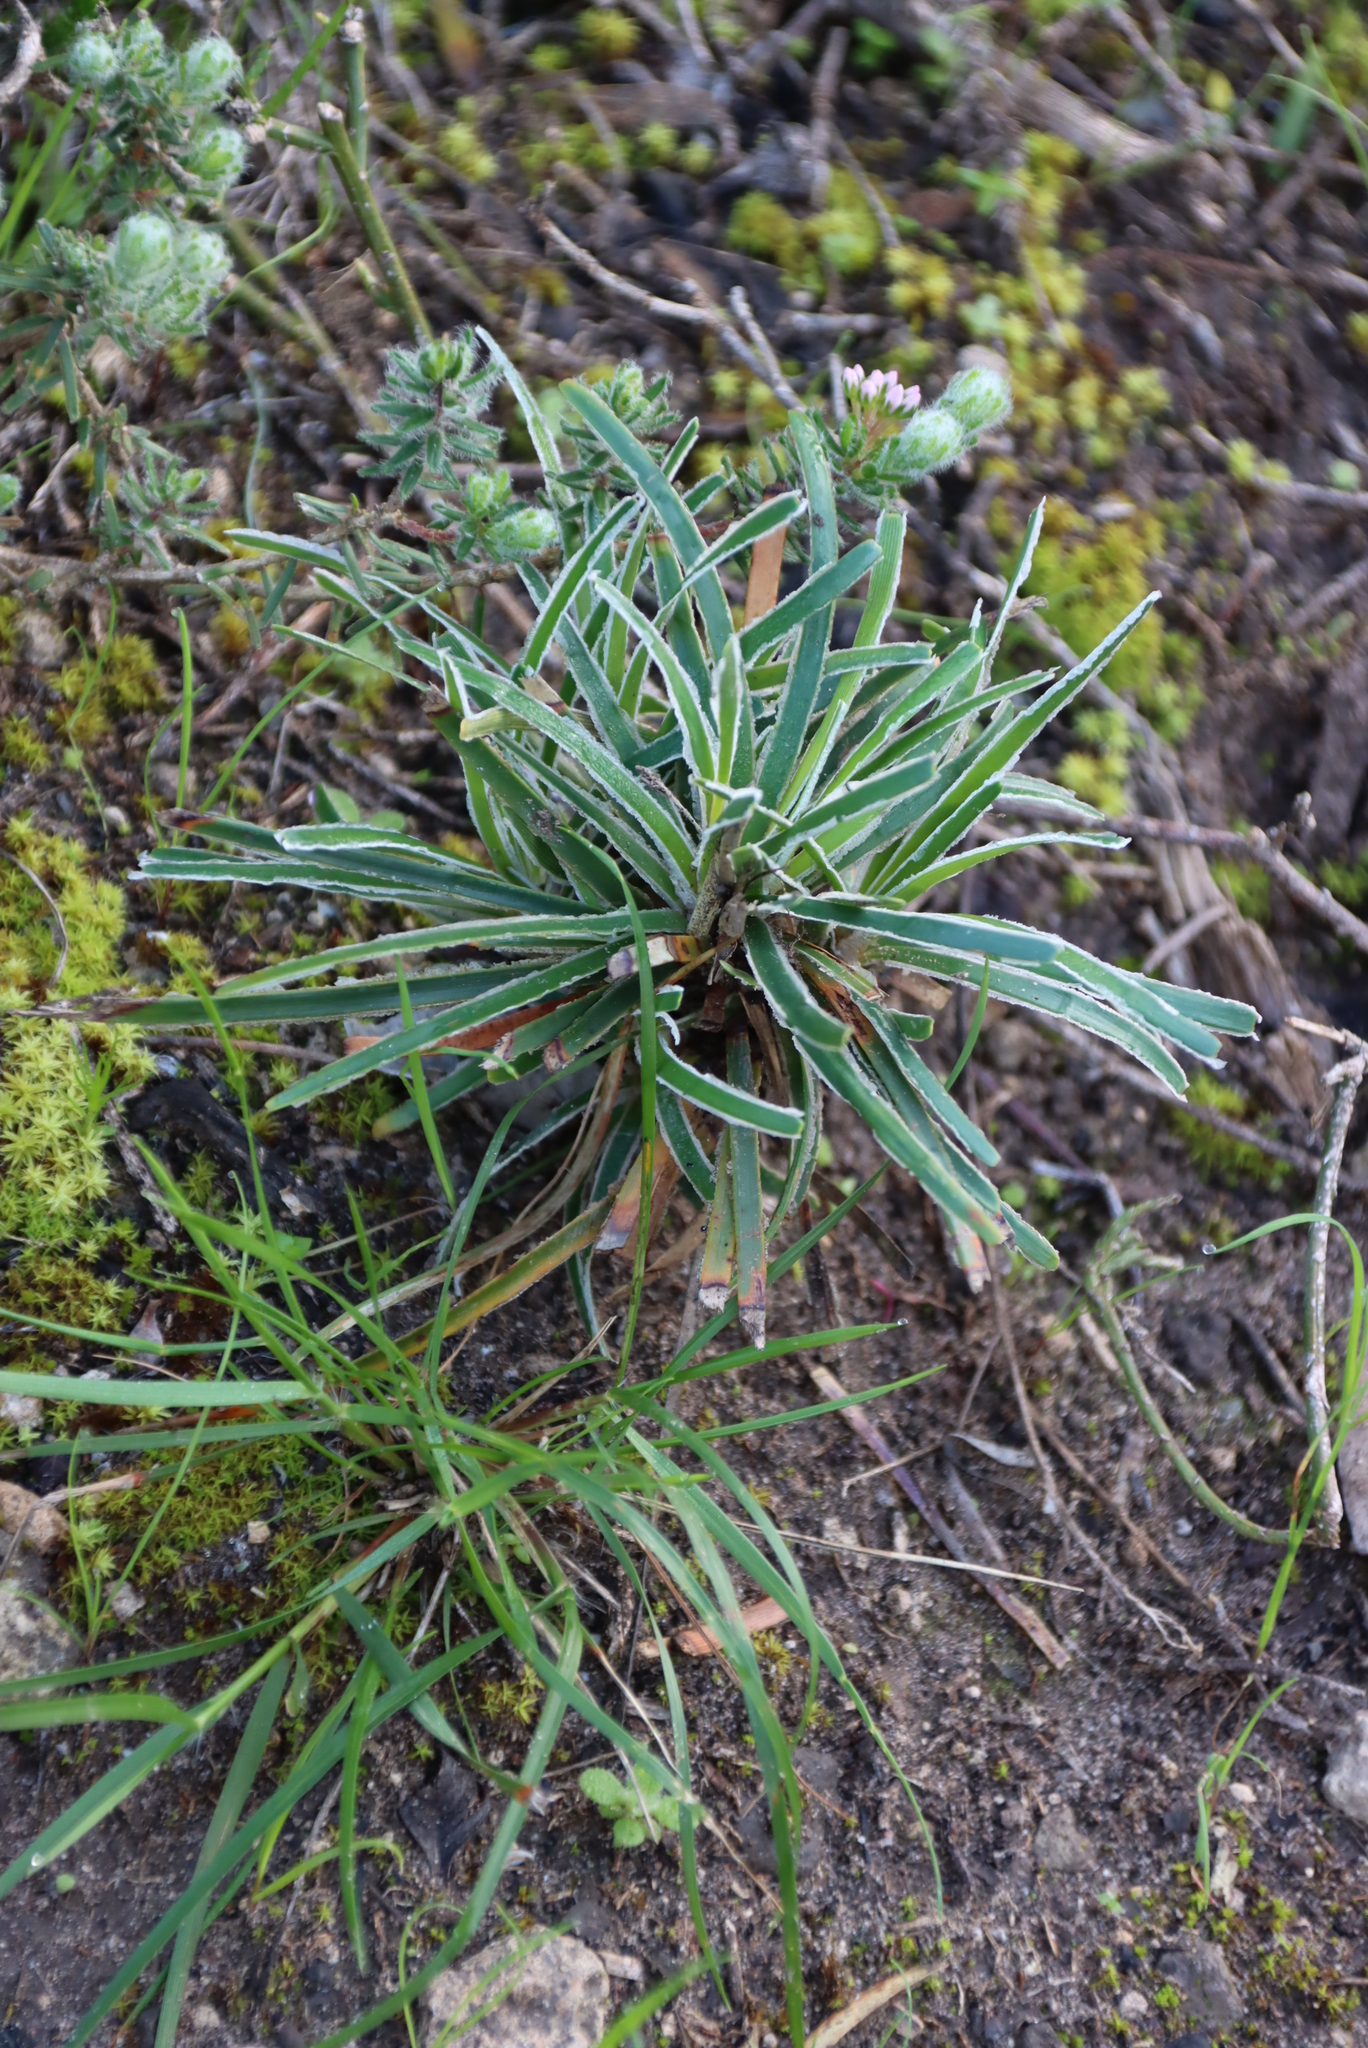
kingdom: Plantae
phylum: Tracheophyta
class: Liliopsida
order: Poales
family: Cyperaceae
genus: Ficinia
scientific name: Ficinia truncata
